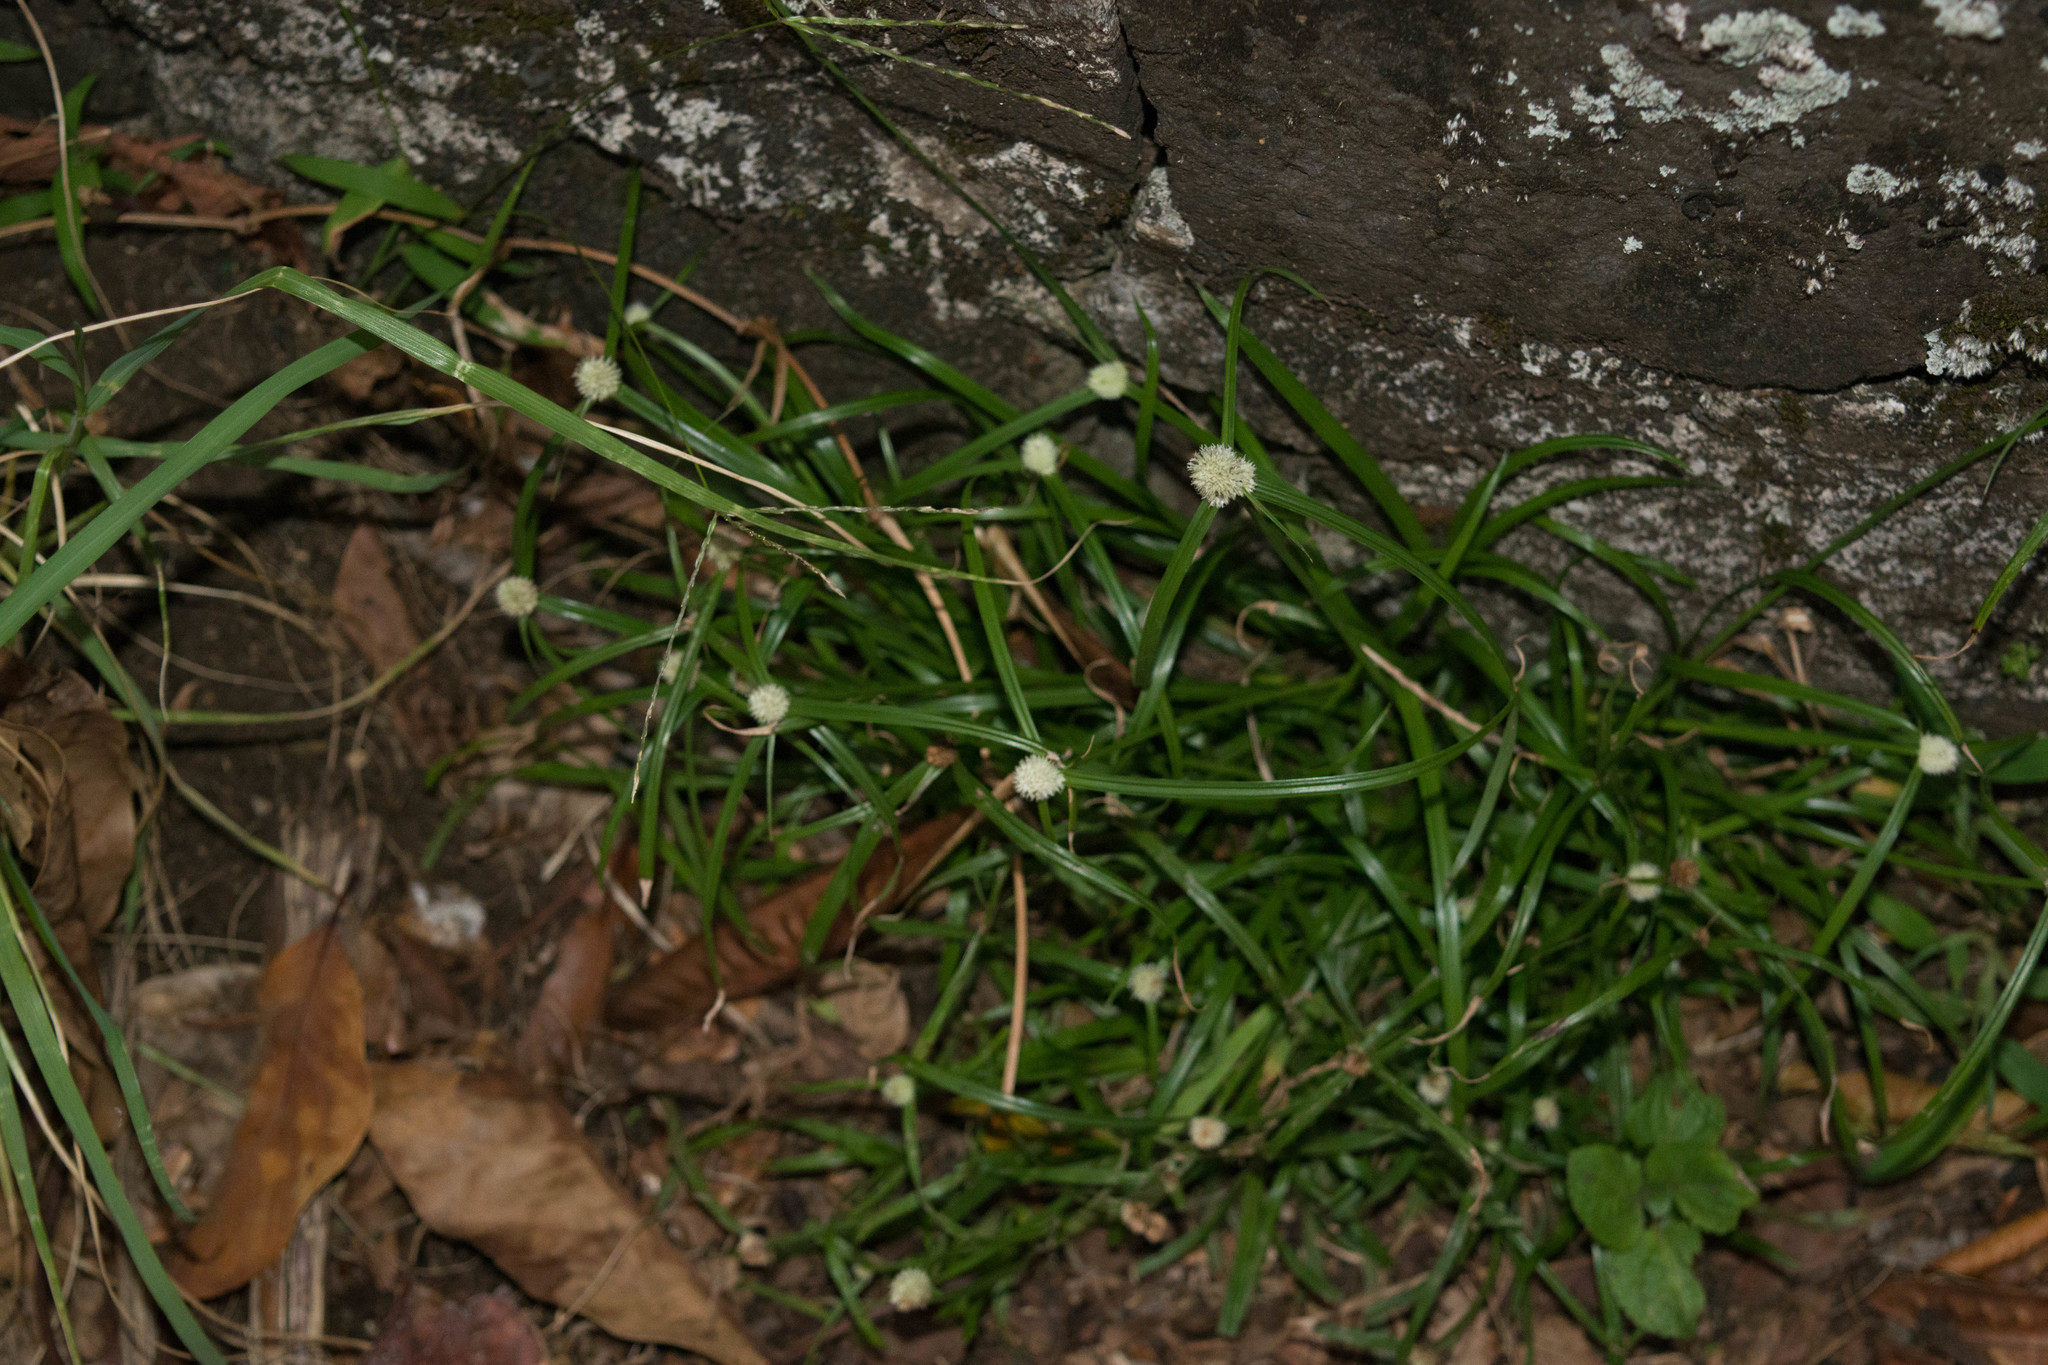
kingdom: Plantae
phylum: Tracheophyta
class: Liliopsida
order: Poales
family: Cyperaceae
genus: Cyperus
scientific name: Cyperus mindorensis
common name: Flatsedge
